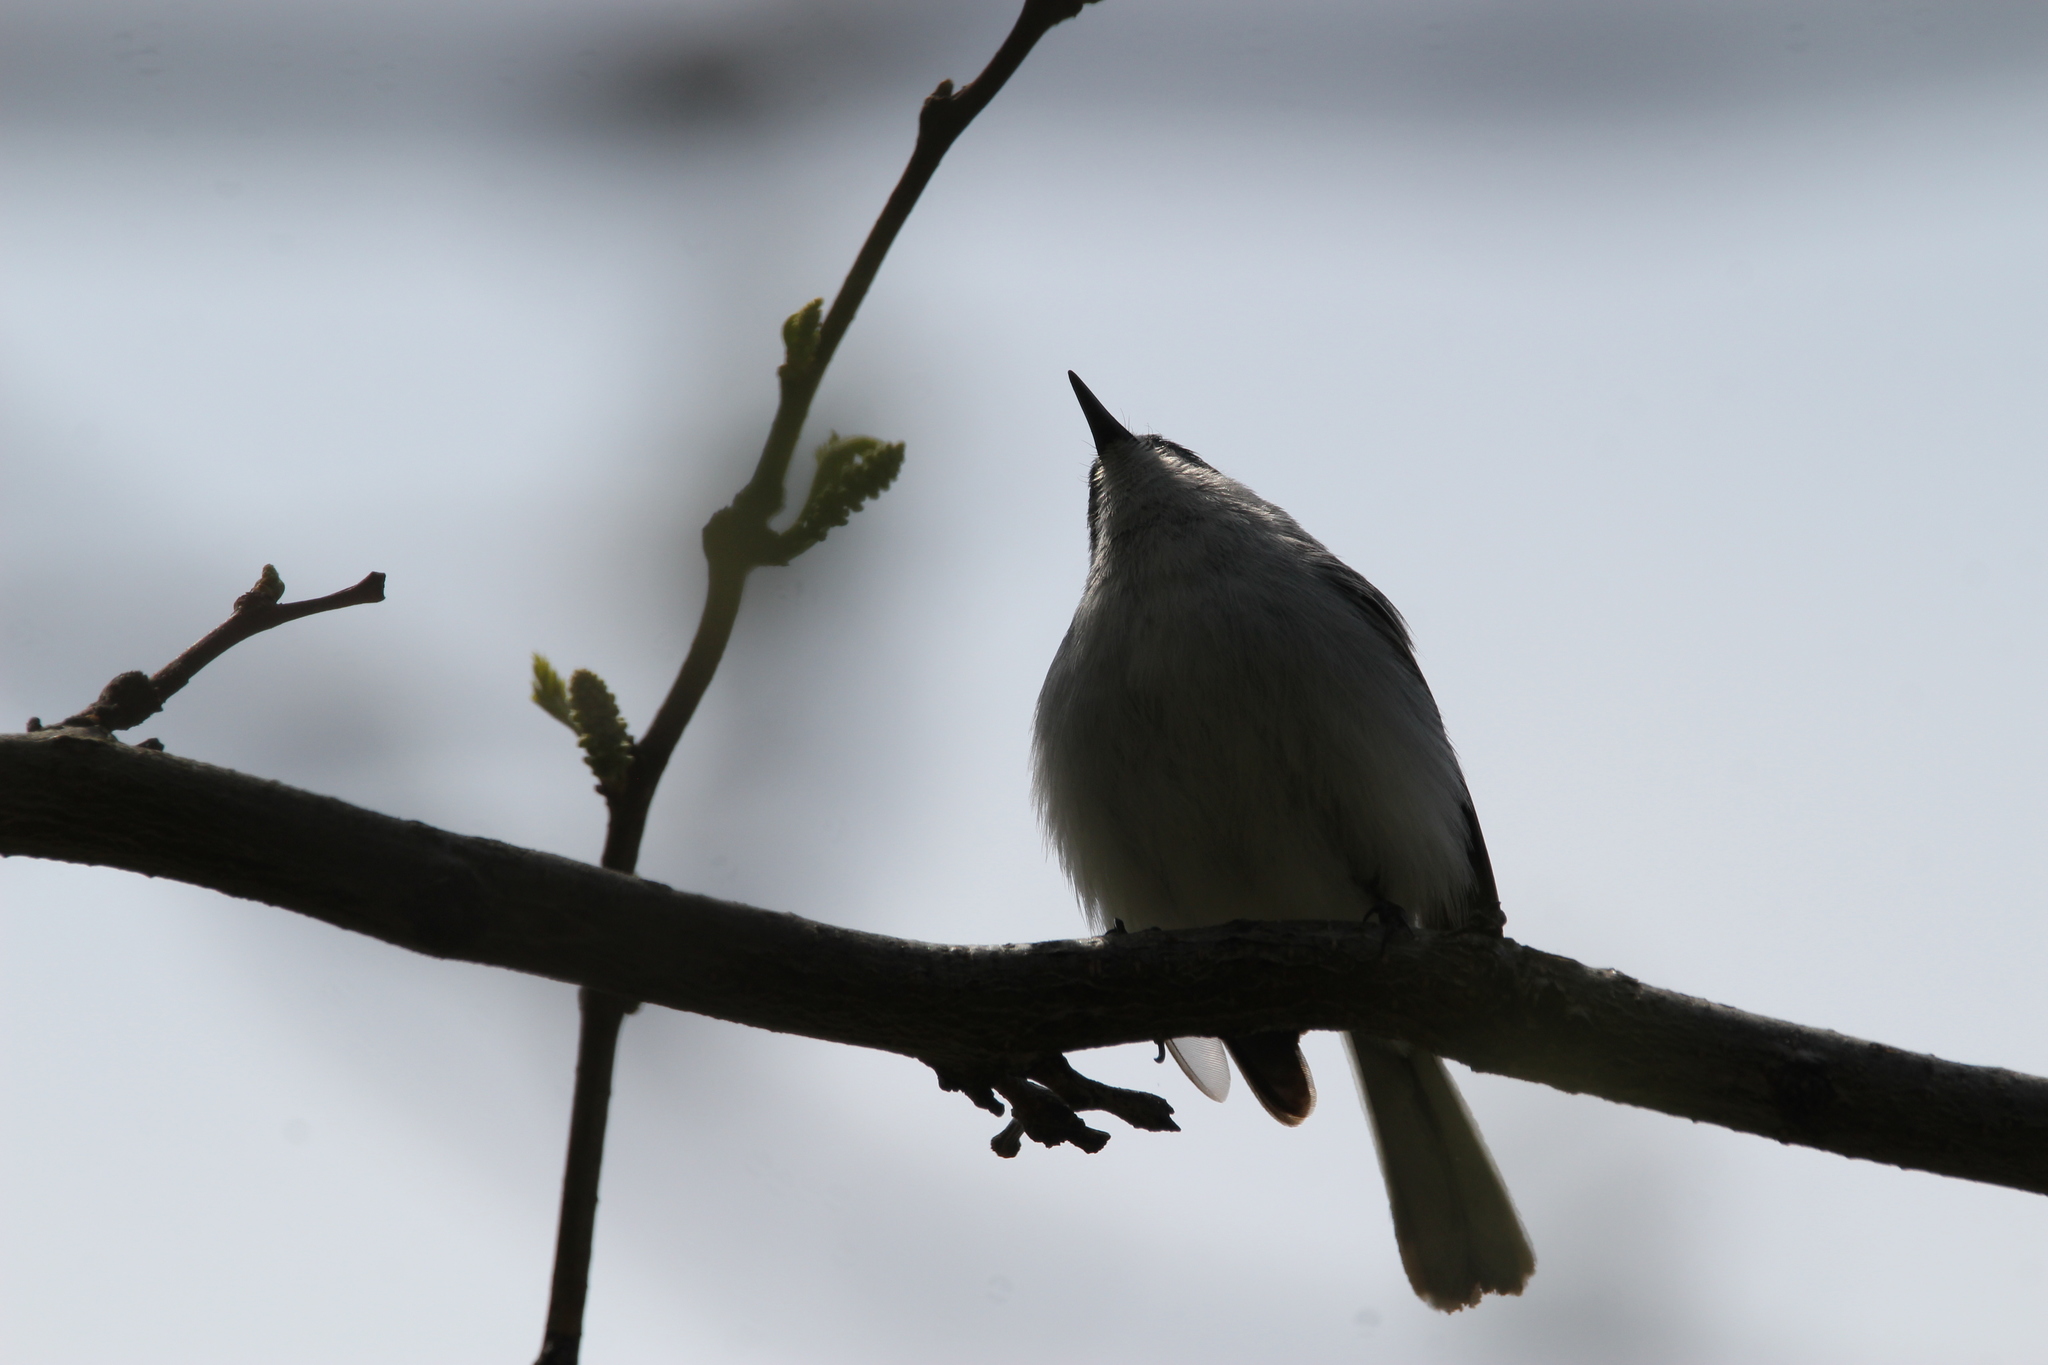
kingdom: Animalia
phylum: Chordata
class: Aves
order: Passeriformes
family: Polioptilidae
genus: Polioptila
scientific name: Polioptila caerulea
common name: Blue-gray gnatcatcher
